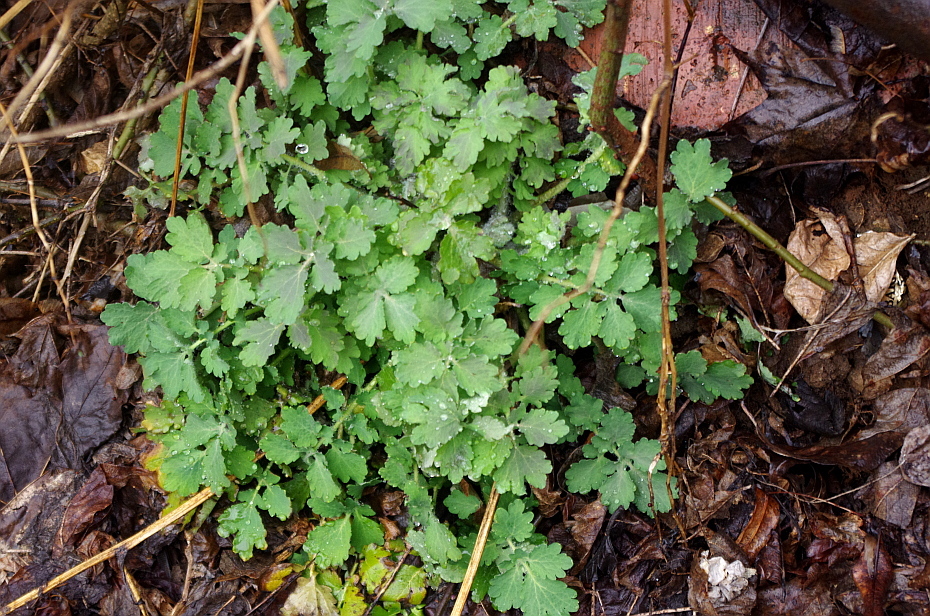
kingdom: Plantae
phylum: Tracheophyta
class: Magnoliopsida
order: Ranunculales
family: Papaveraceae
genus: Chelidonium
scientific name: Chelidonium majus
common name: Greater celandine
